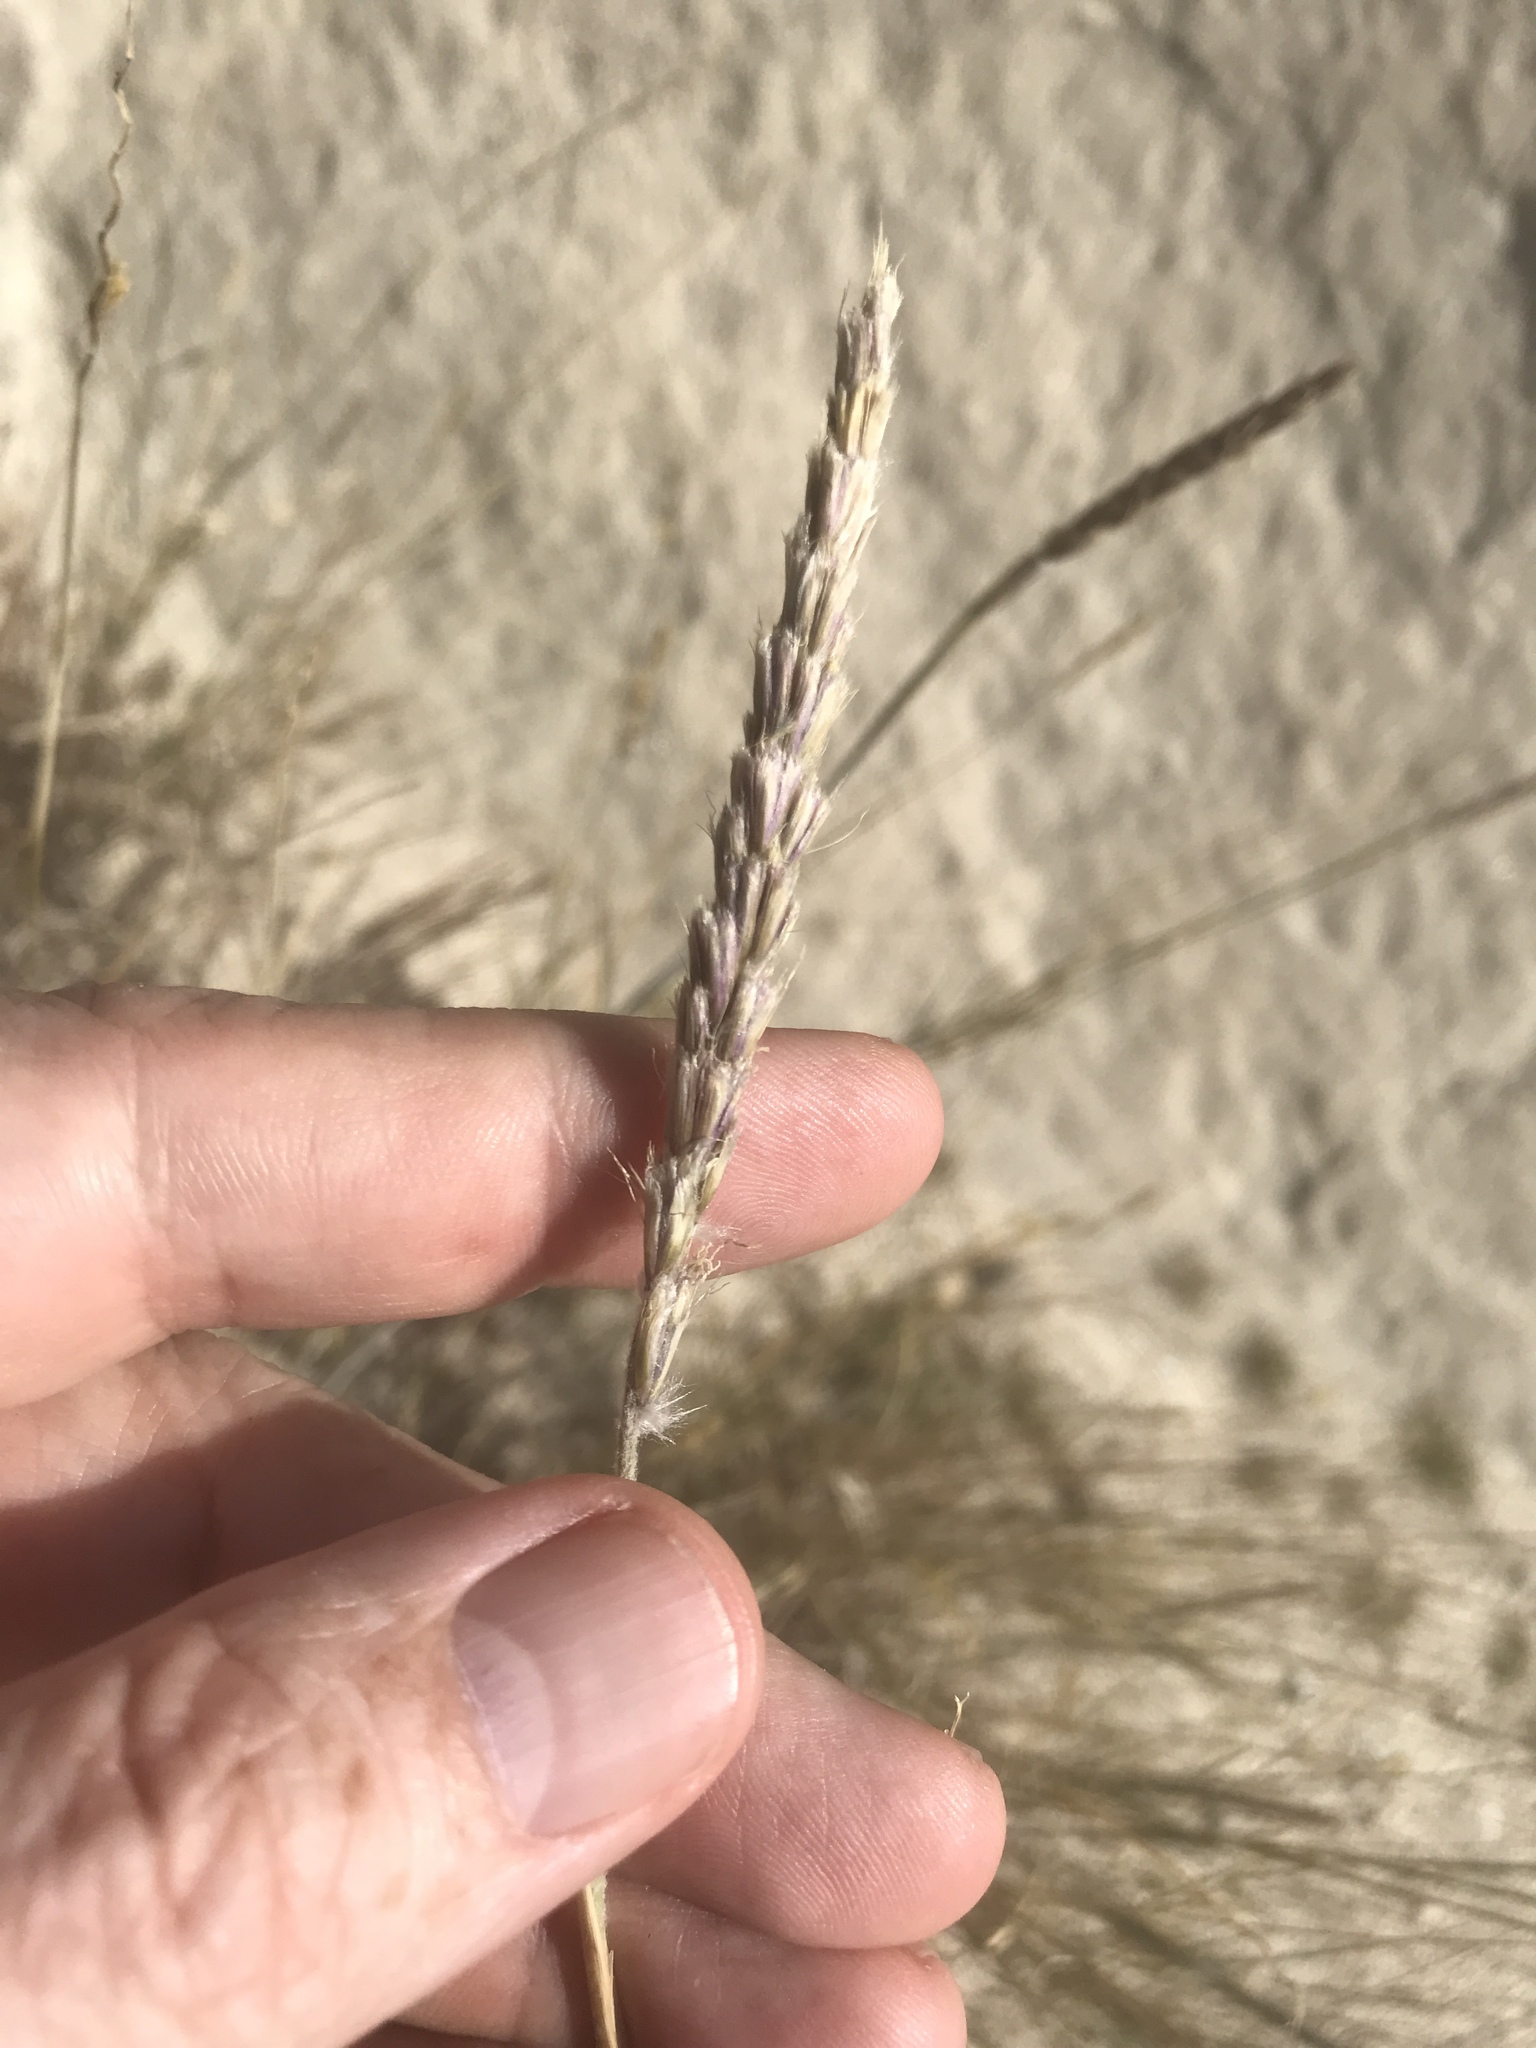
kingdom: Plantae
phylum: Tracheophyta
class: Liliopsida
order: Poales
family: Poaceae
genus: Hilaria
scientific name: Hilaria rigida
